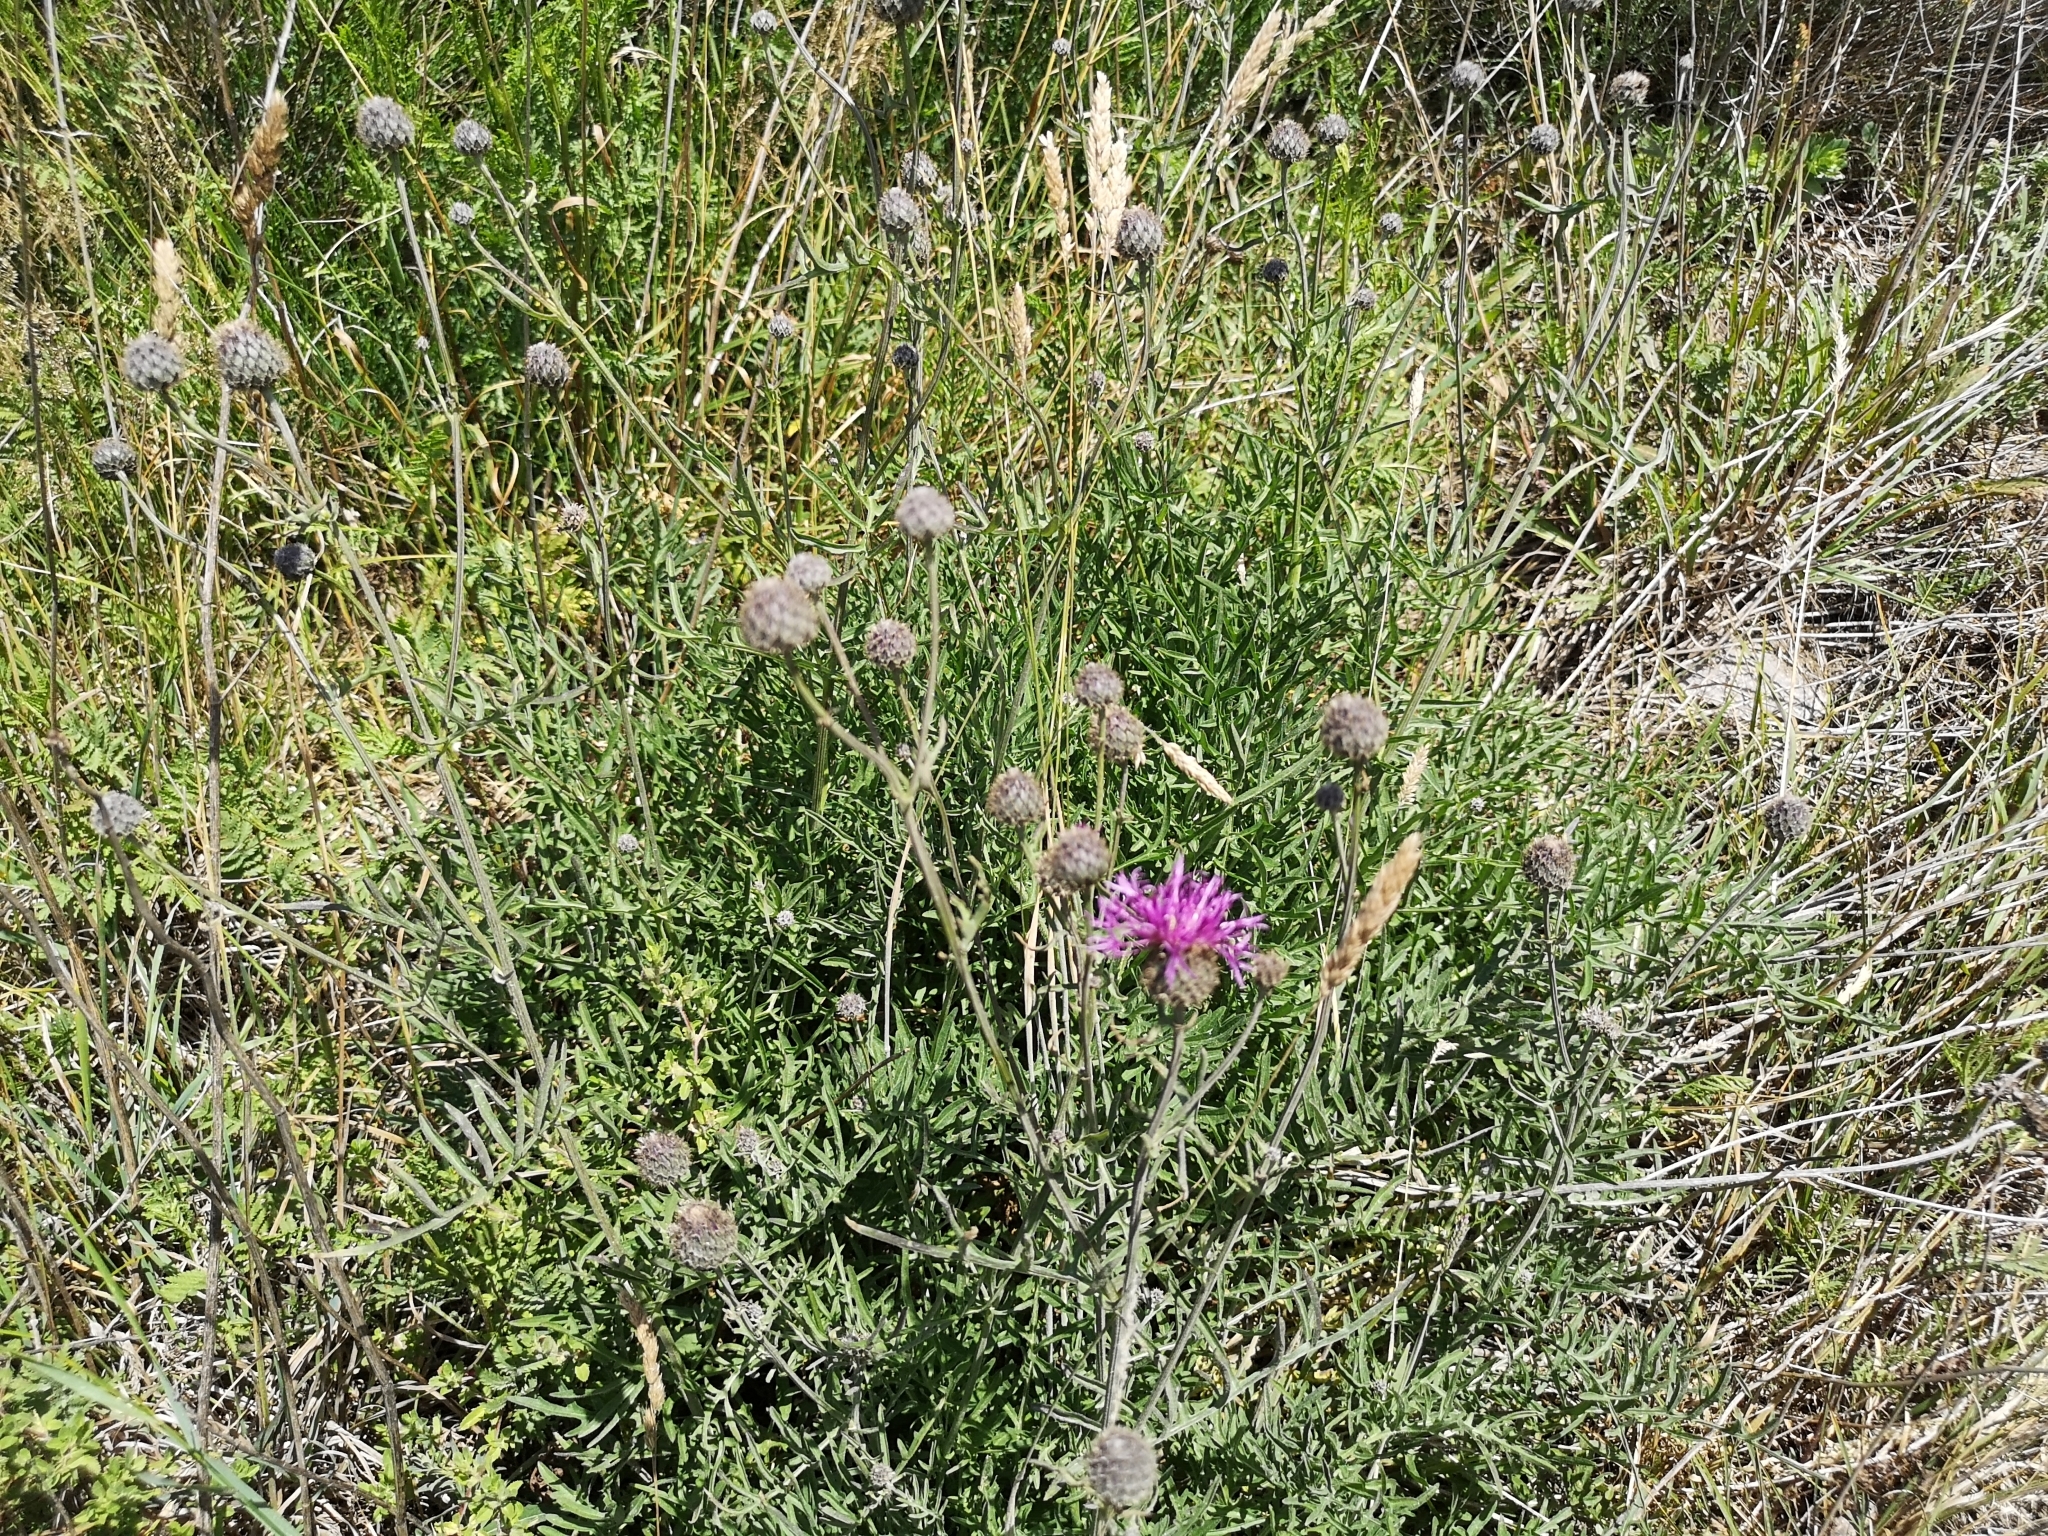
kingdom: Plantae
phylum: Tracheophyta
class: Magnoliopsida
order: Asterales
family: Asteraceae
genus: Centaurea
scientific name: Centaurea scabiosa
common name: Greater knapweed
